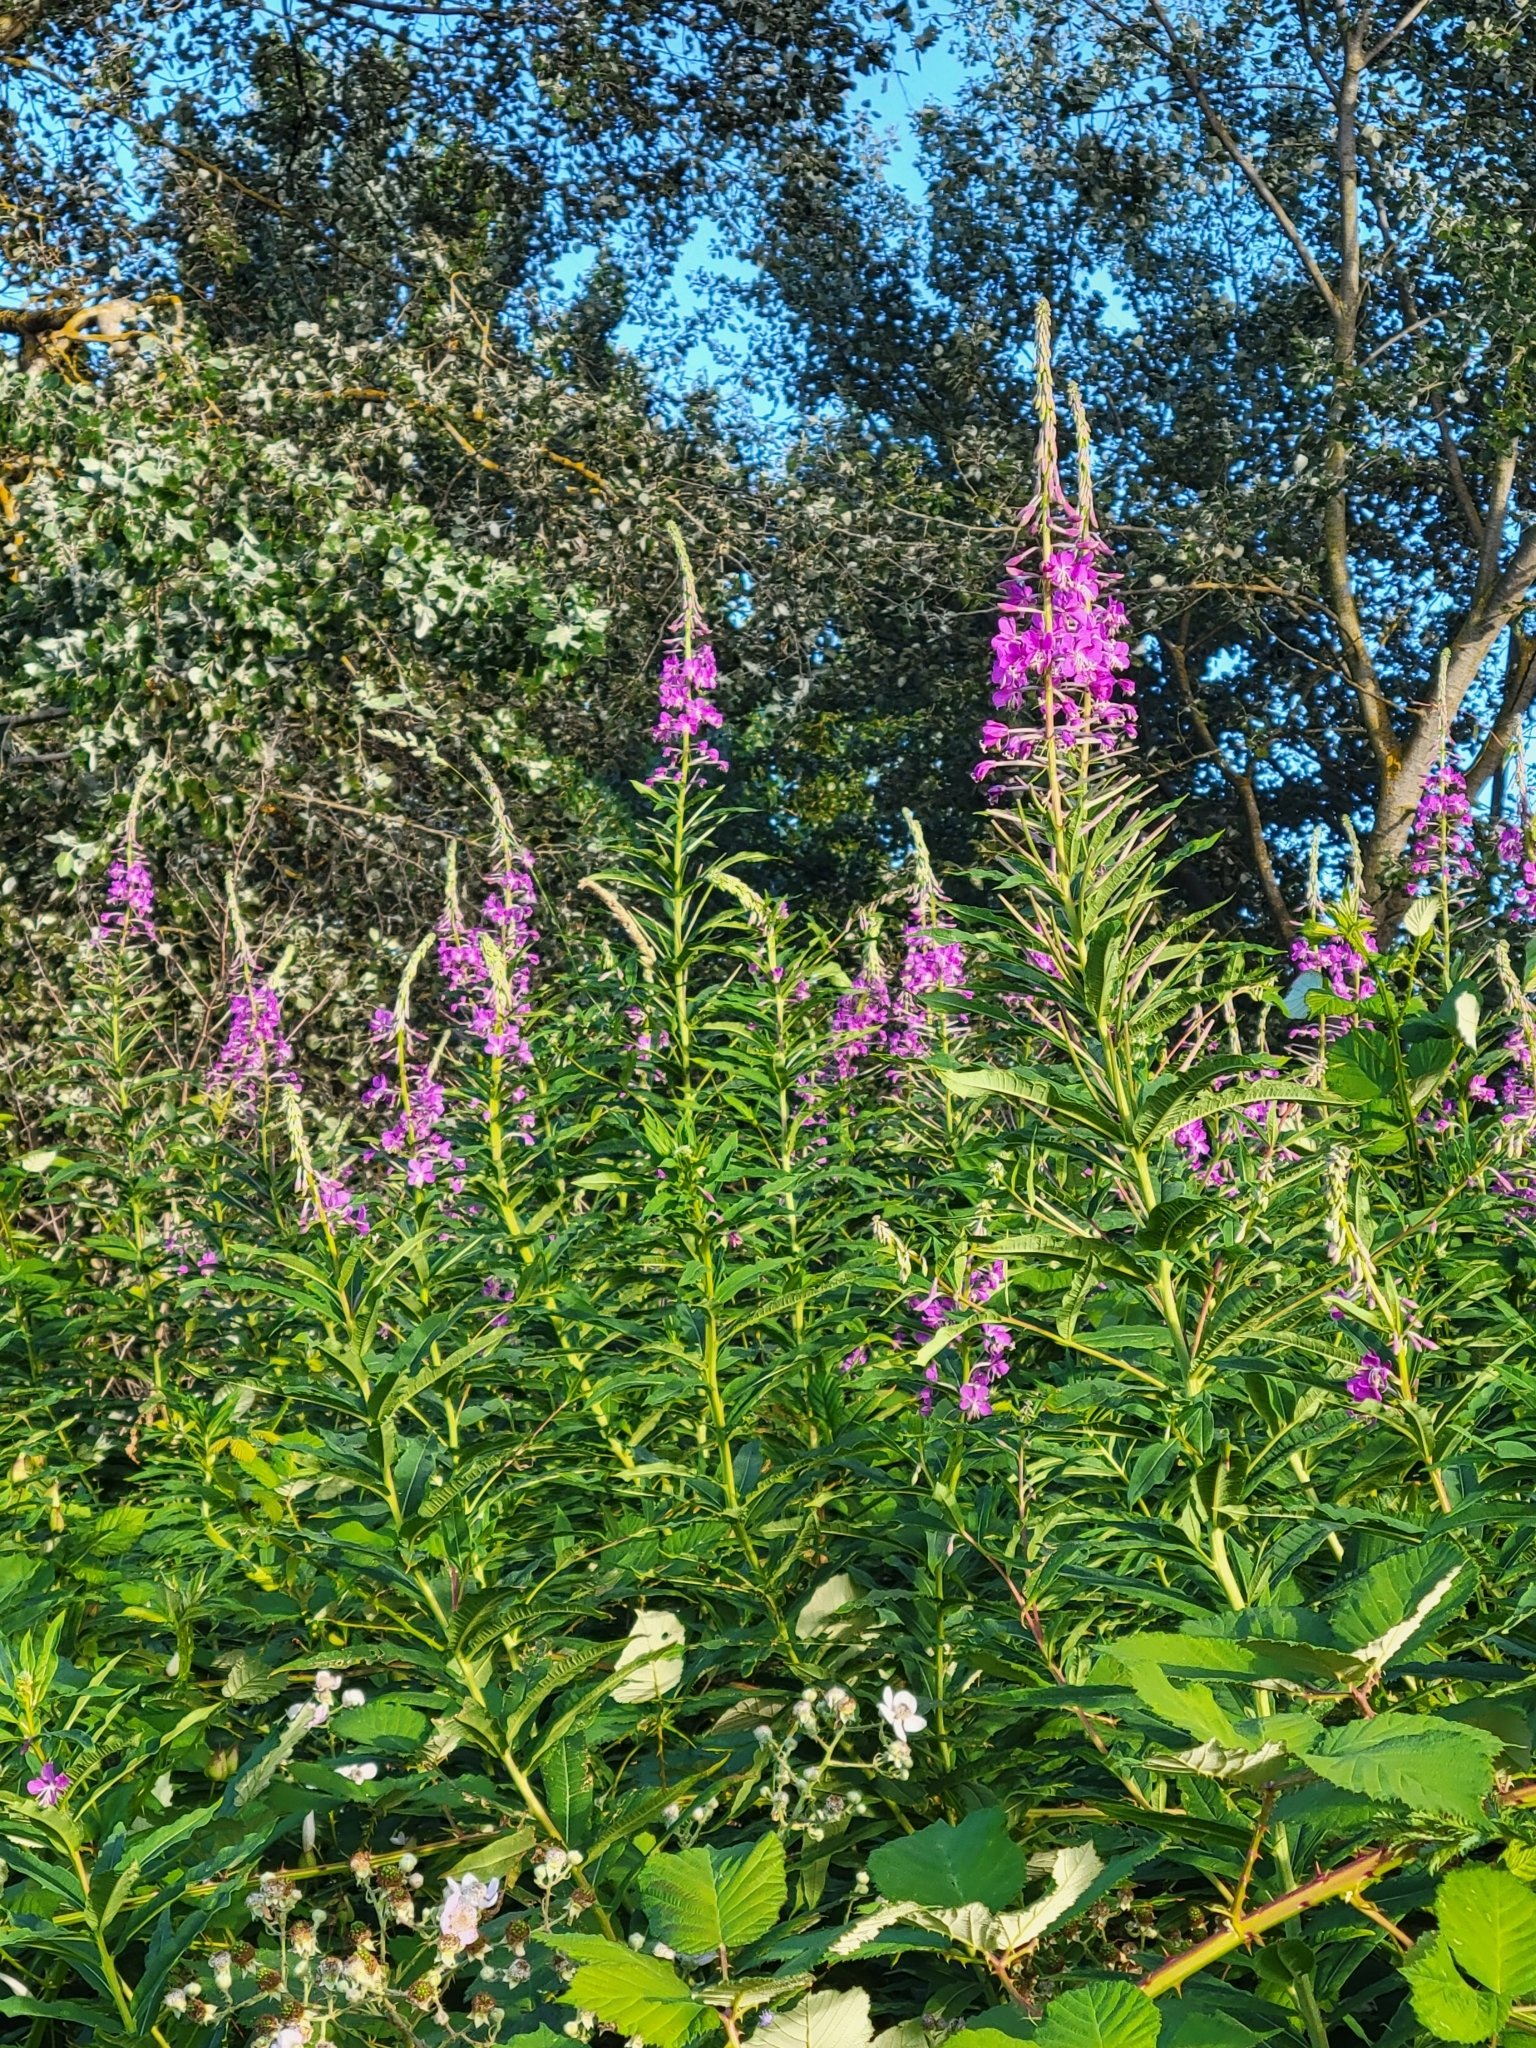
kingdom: Plantae
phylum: Tracheophyta
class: Magnoliopsida
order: Myrtales
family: Onagraceae
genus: Chamaenerion
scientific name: Chamaenerion angustifolium
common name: Fireweed
